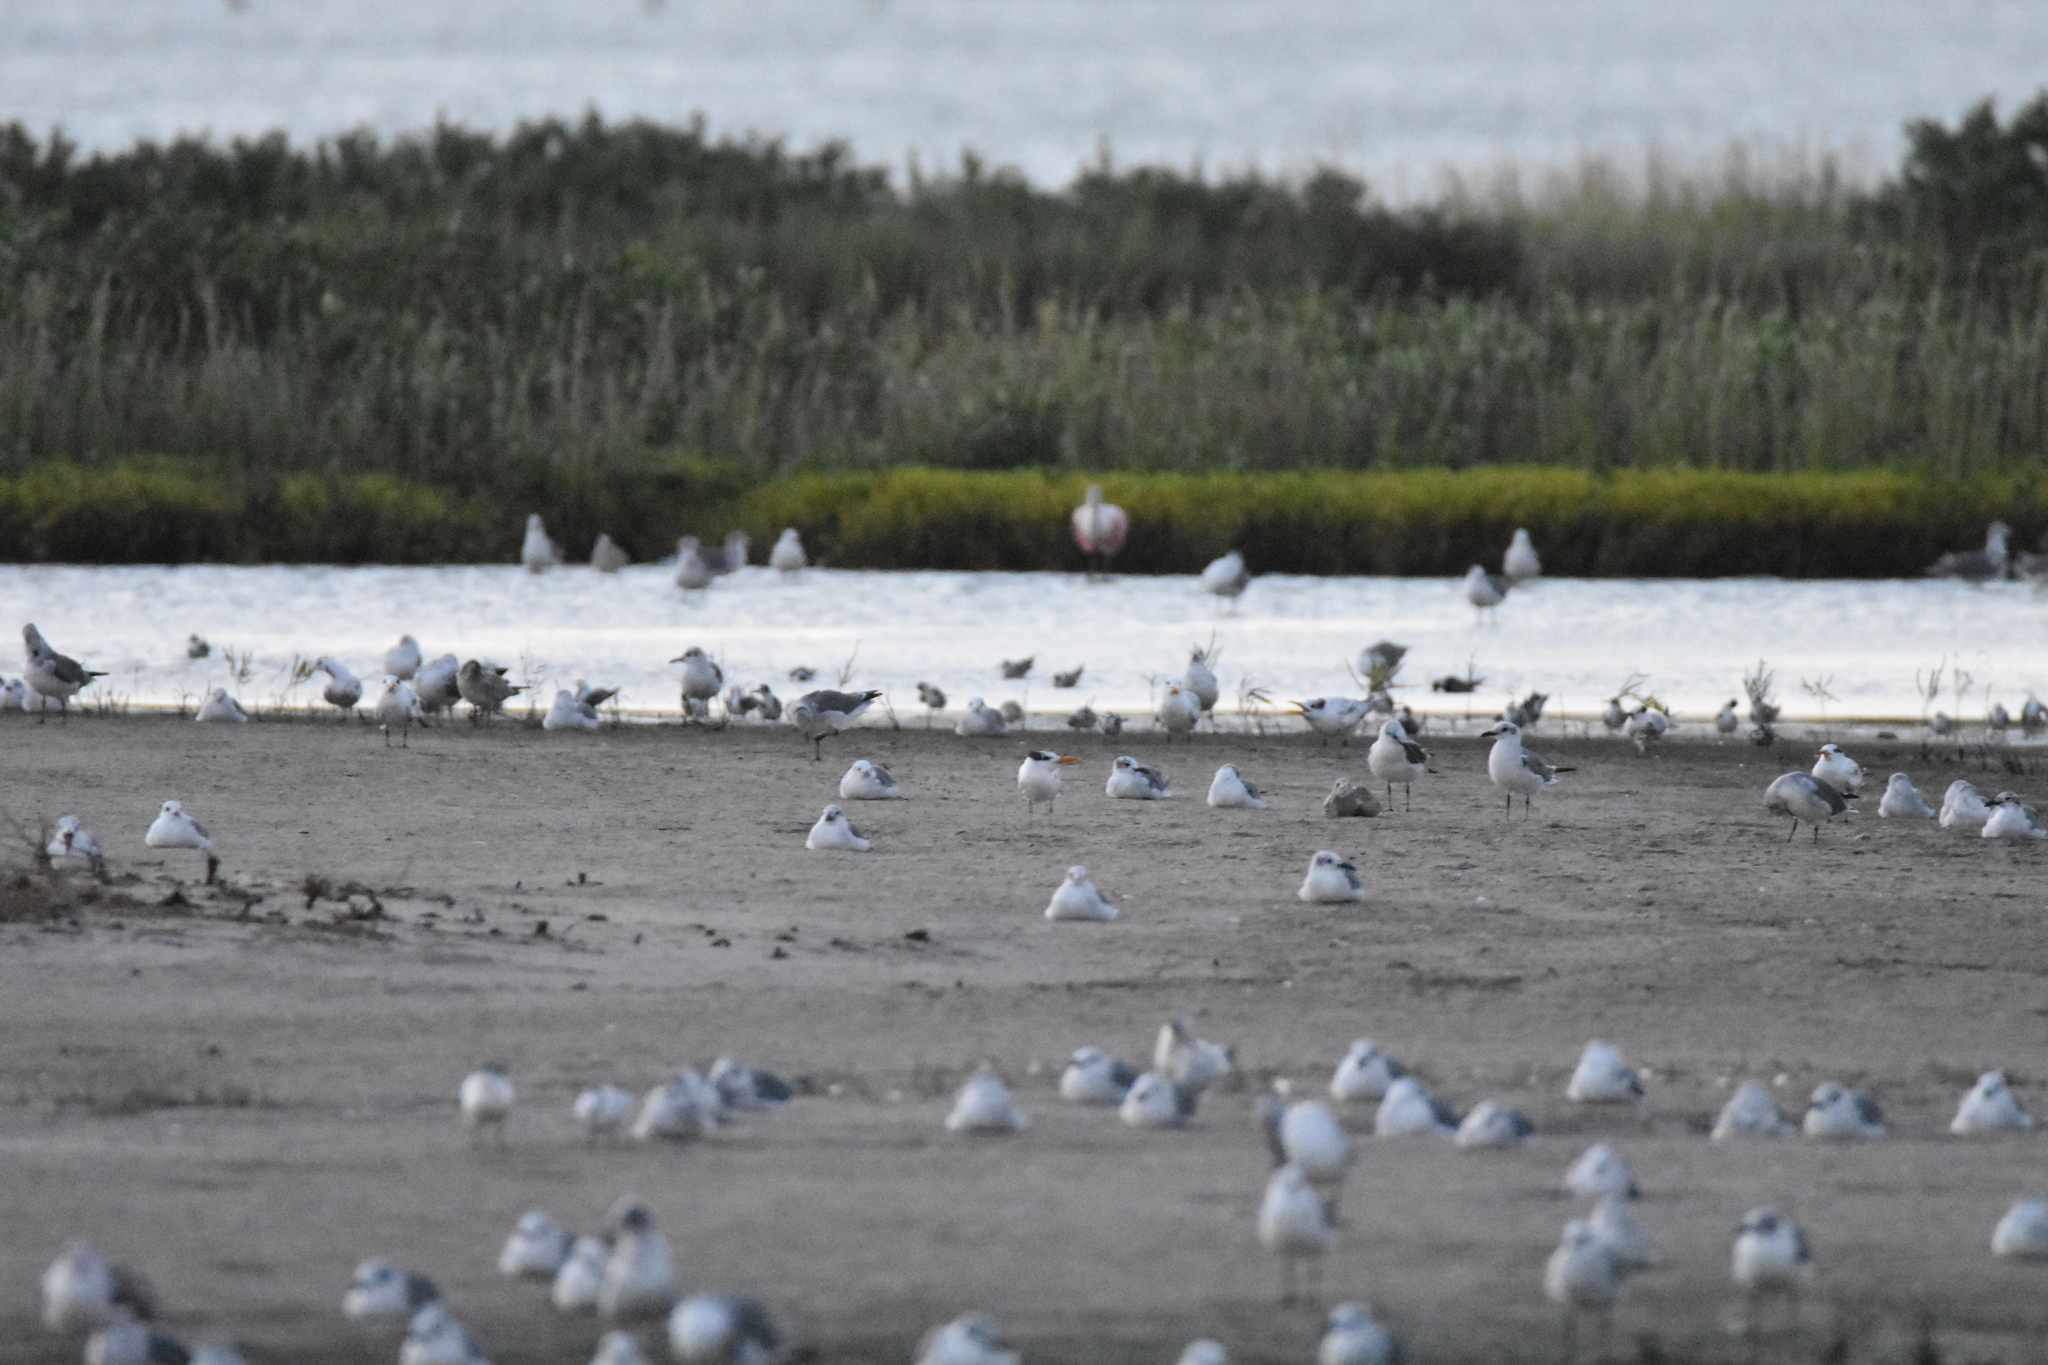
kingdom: Animalia
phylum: Chordata
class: Aves
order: Pelecaniformes
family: Threskiornithidae
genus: Platalea
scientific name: Platalea ajaja
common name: Roseate spoonbill
